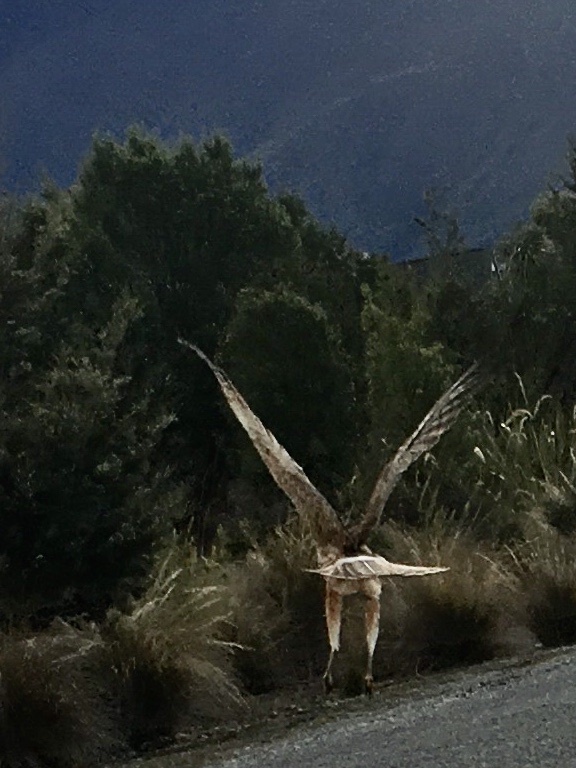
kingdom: Animalia
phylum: Chordata
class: Aves
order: Accipitriformes
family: Accipitridae
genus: Circus
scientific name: Circus approximans
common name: Swamp harrier
